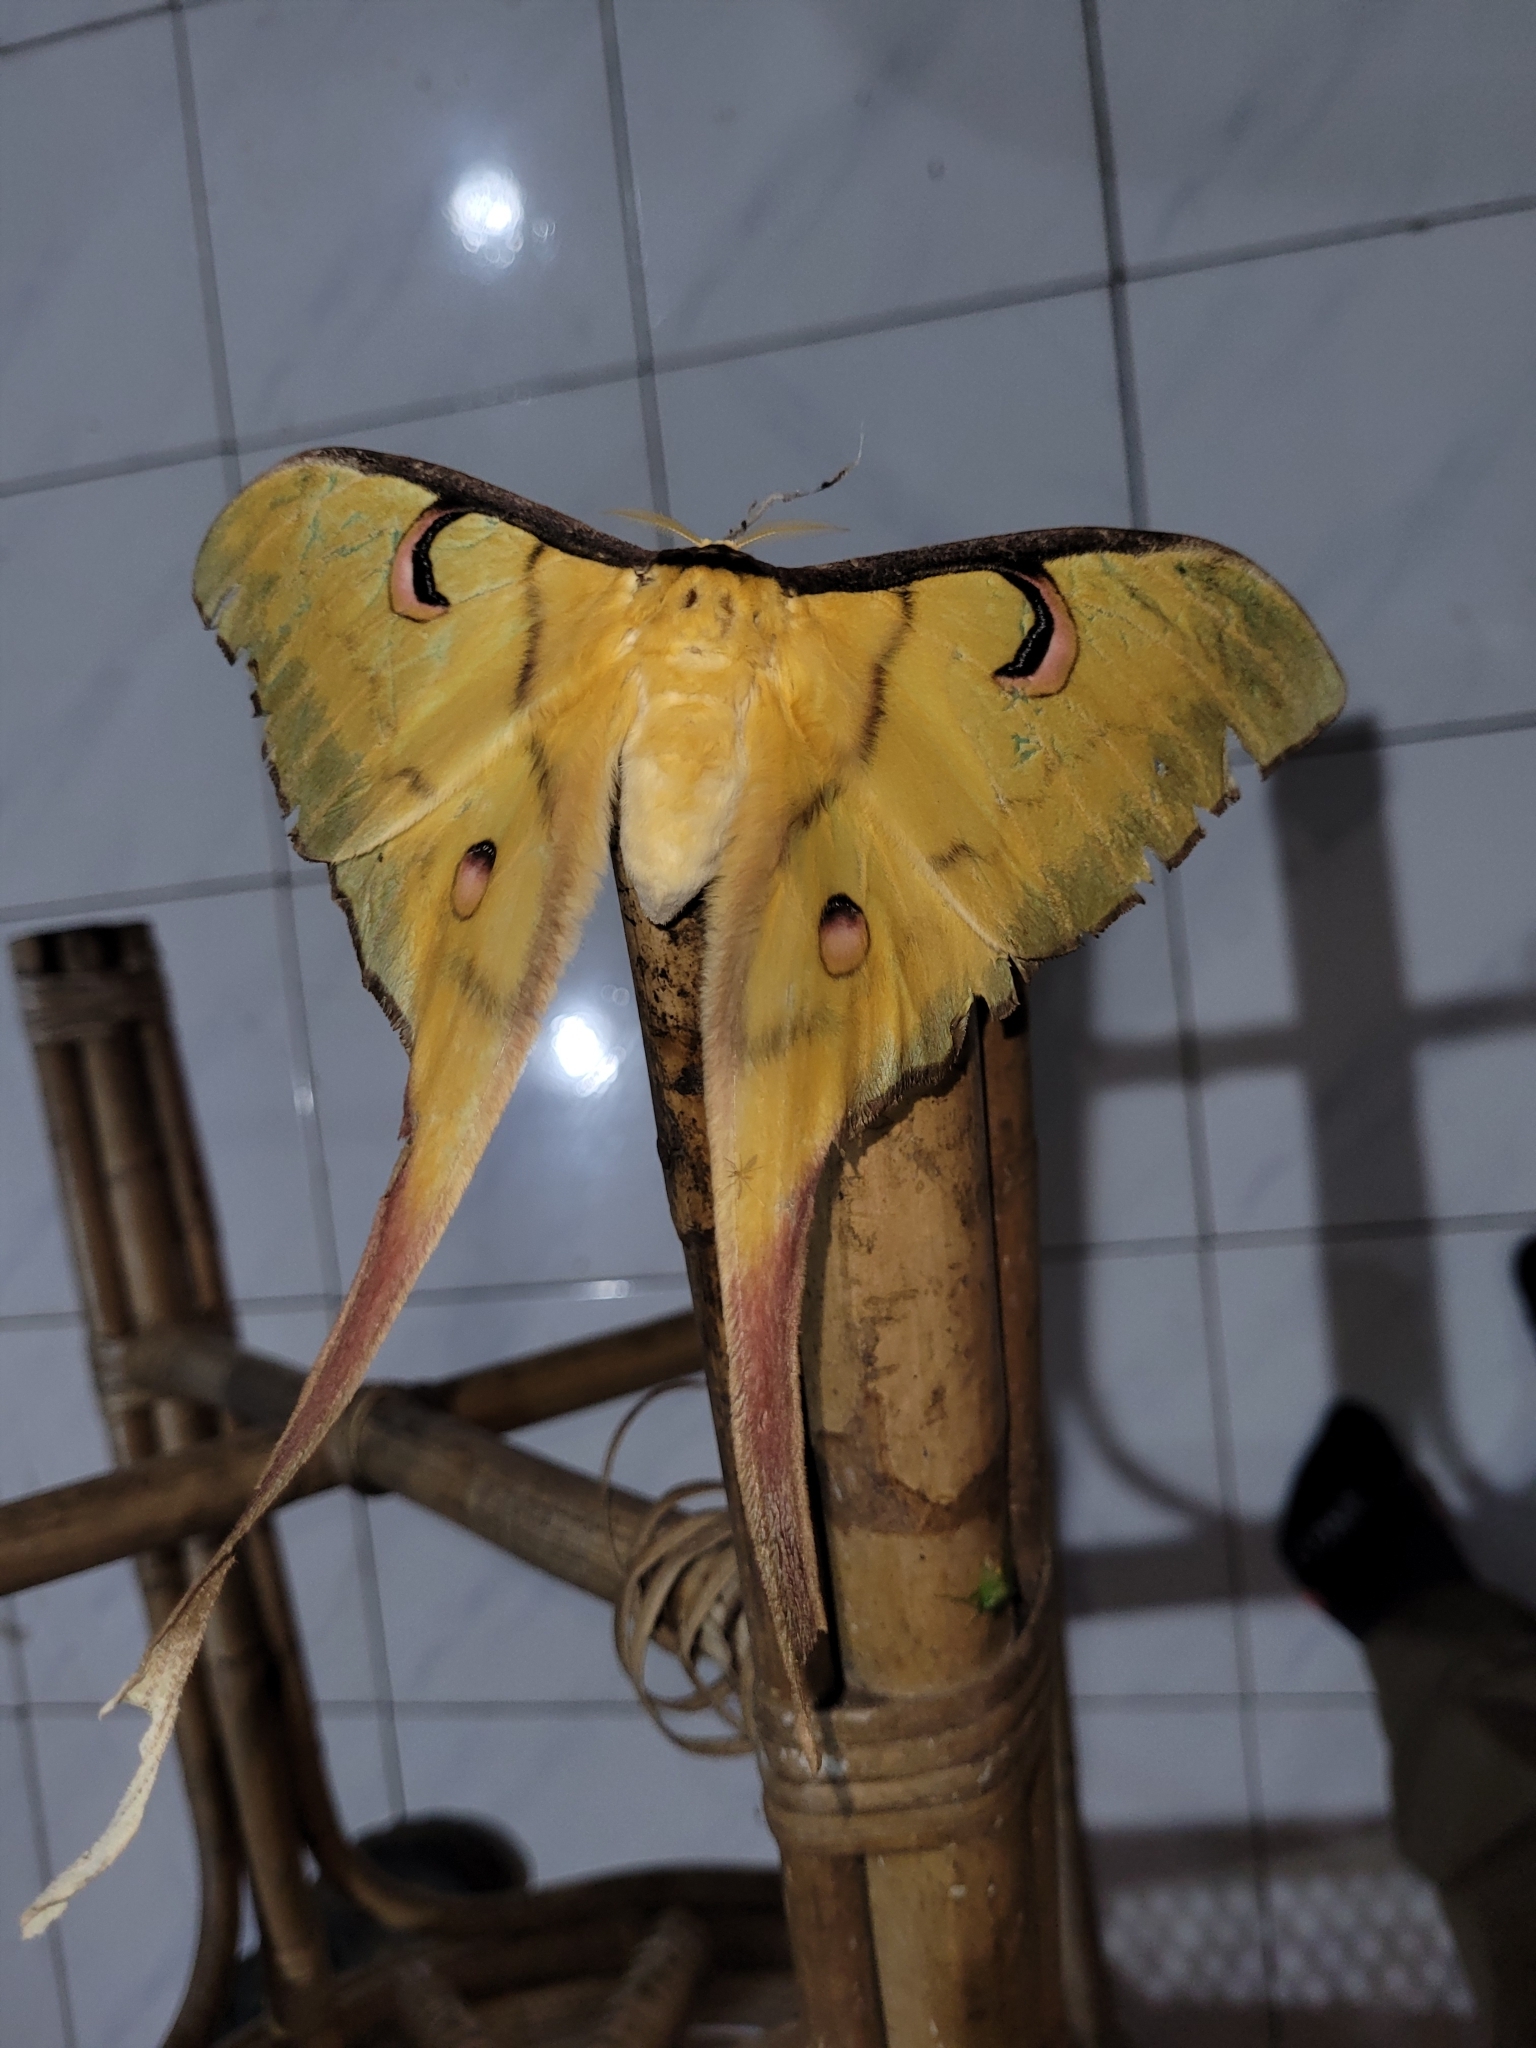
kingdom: Animalia
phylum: Arthropoda
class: Insecta
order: Lepidoptera
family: Saturniidae
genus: Actias
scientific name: Actias isis
